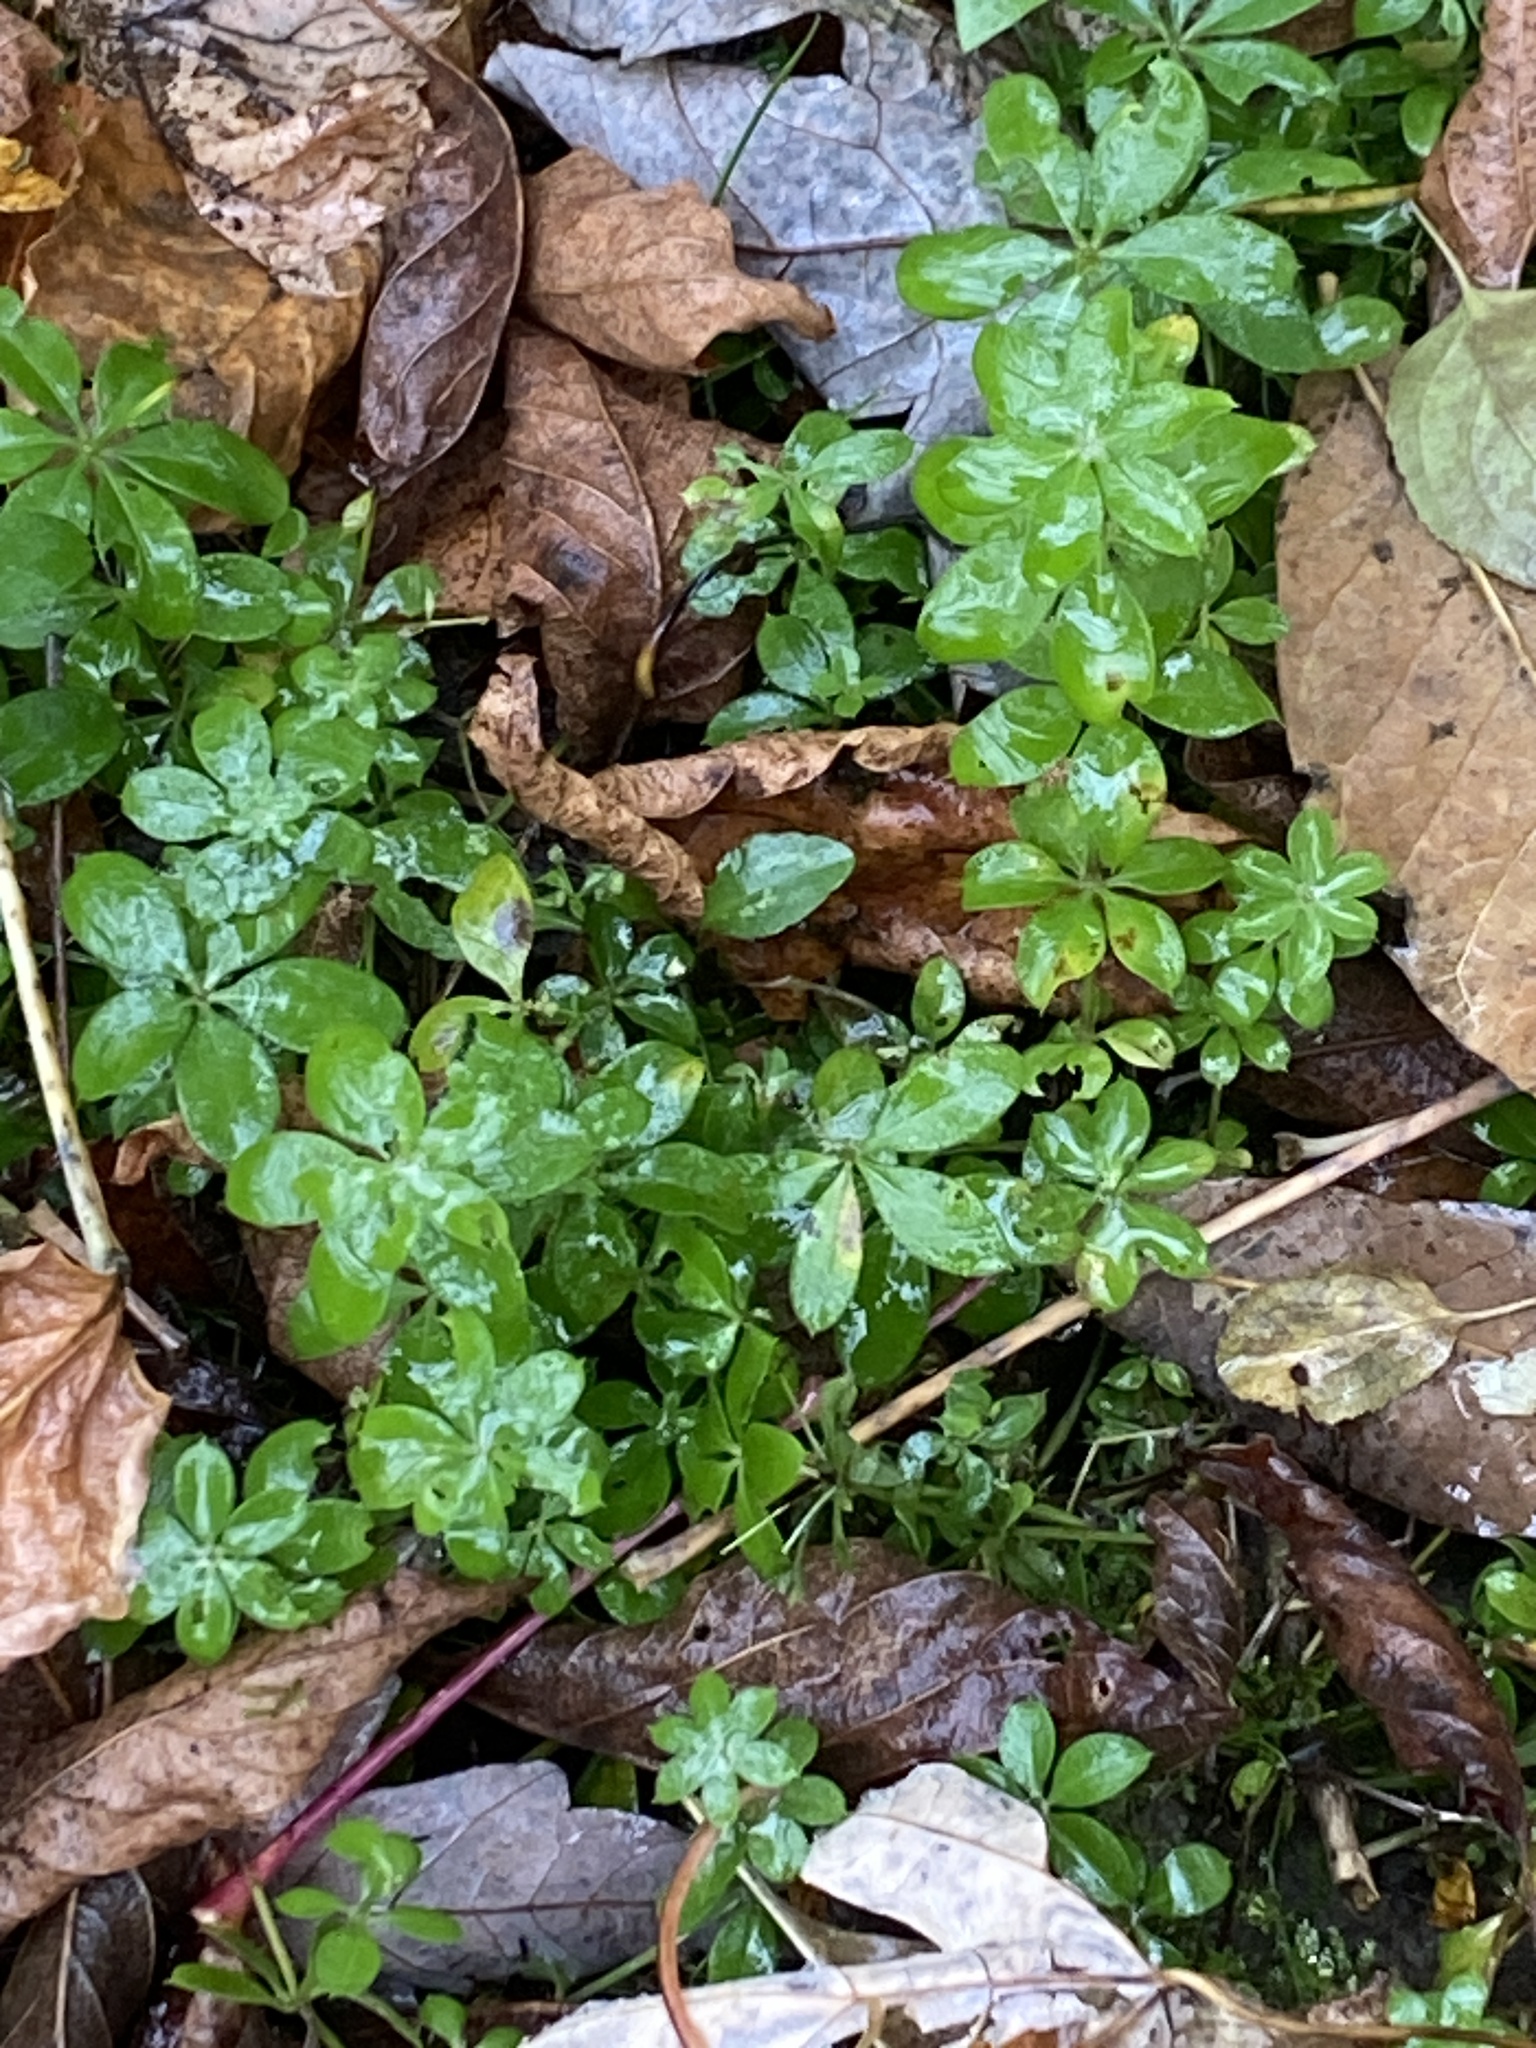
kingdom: Plantae
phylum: Tracheophyta
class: Magnoliopsida
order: Gentianales
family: Rubiaceae
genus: Galium
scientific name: Galium triflorum
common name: Fragrant bedstraw
